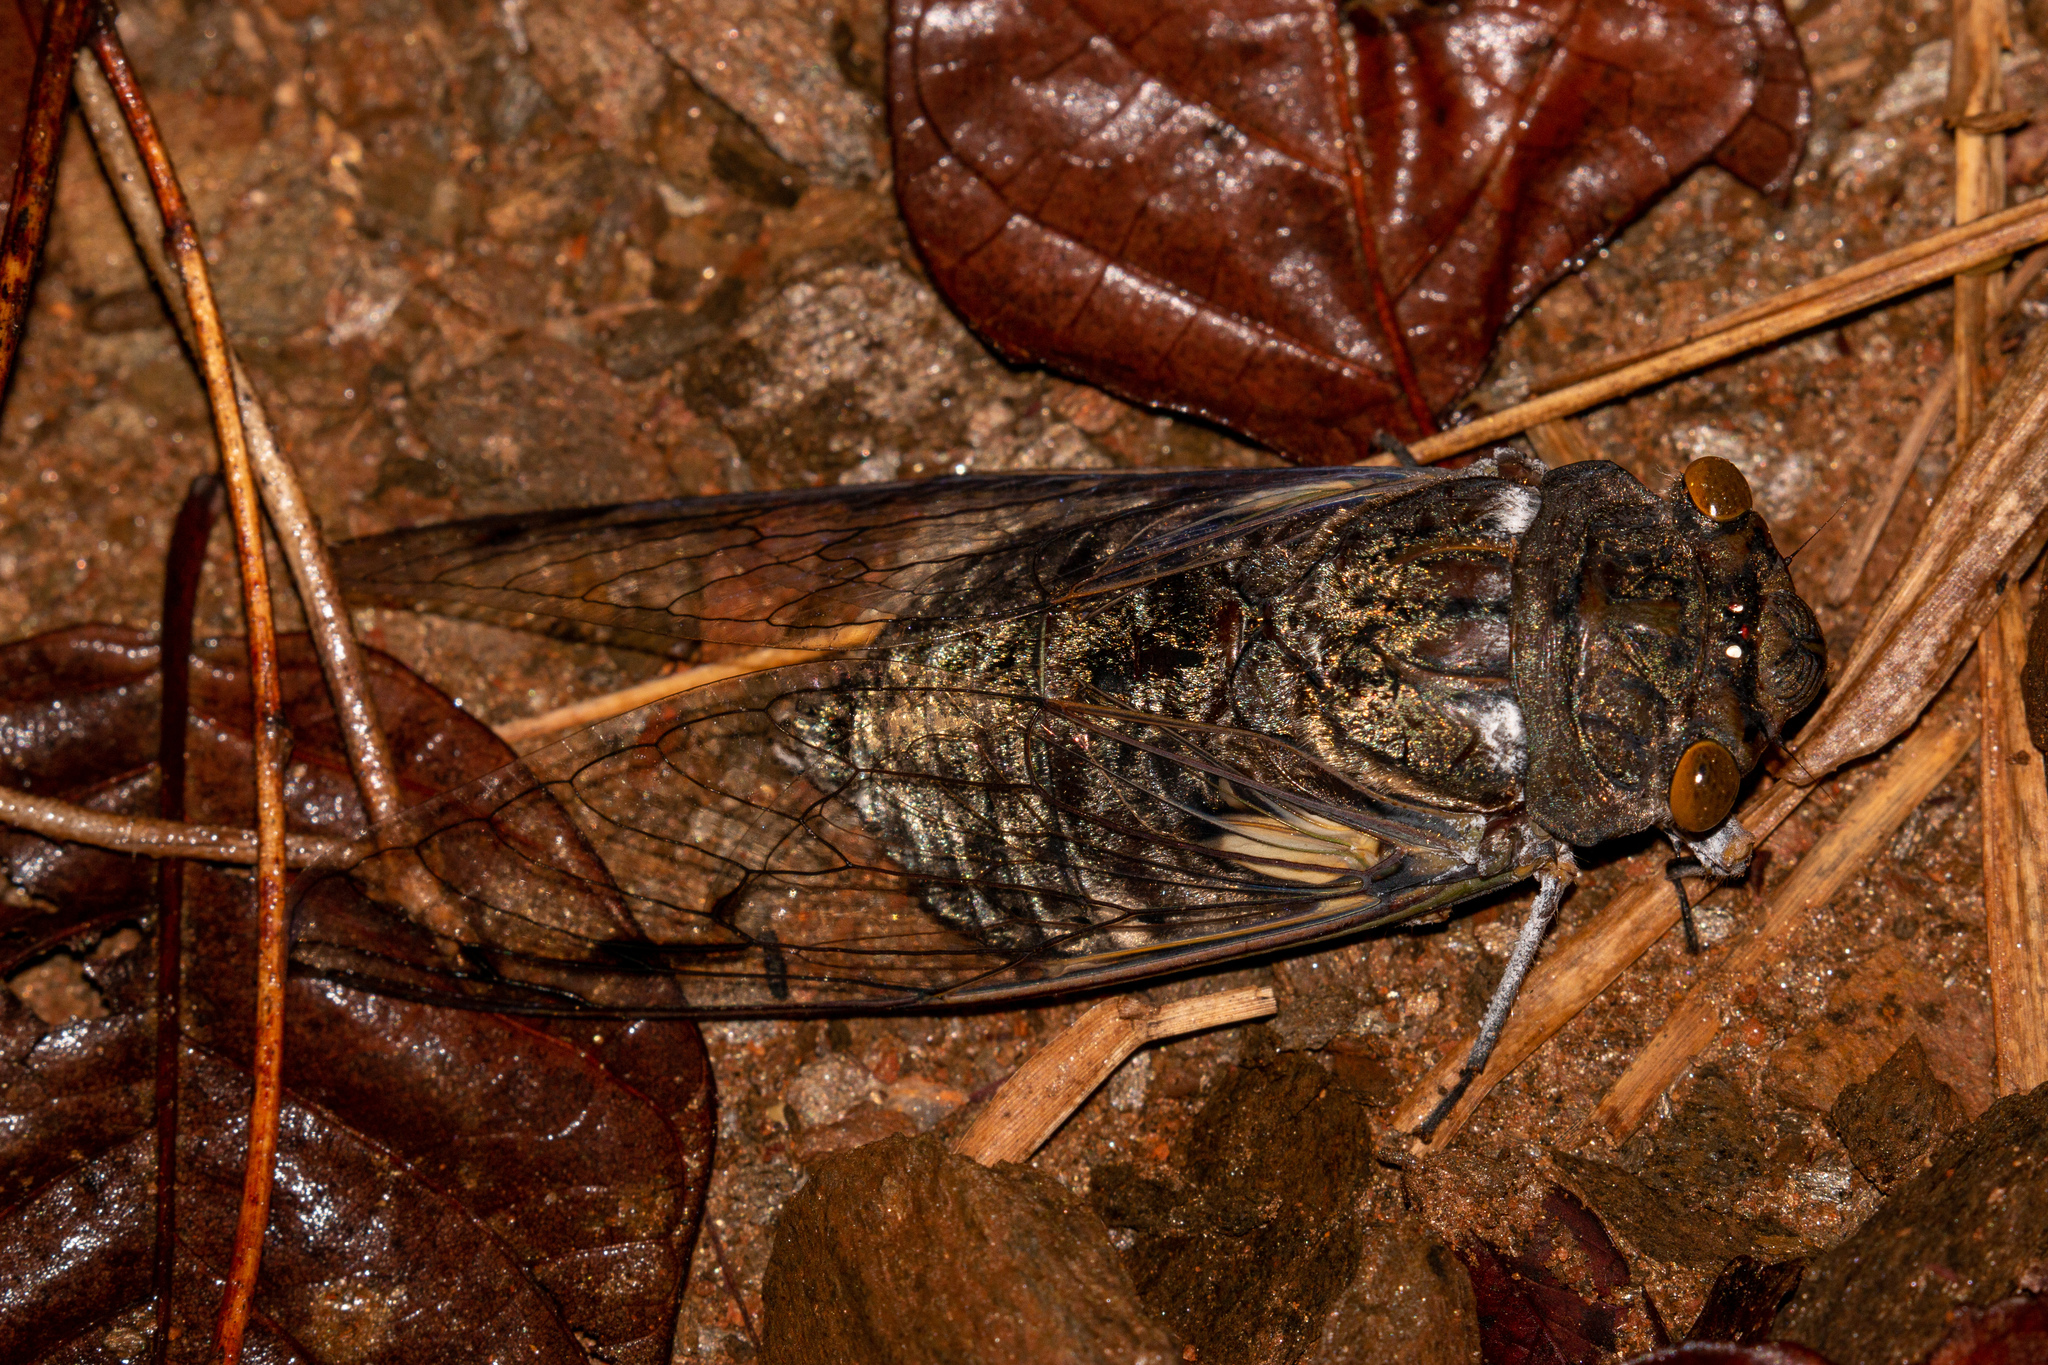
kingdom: Animalia
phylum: Arthropoda
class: Insecta
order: Hemiptera
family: Cicadidae
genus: Quesada
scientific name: Quesada gigas
